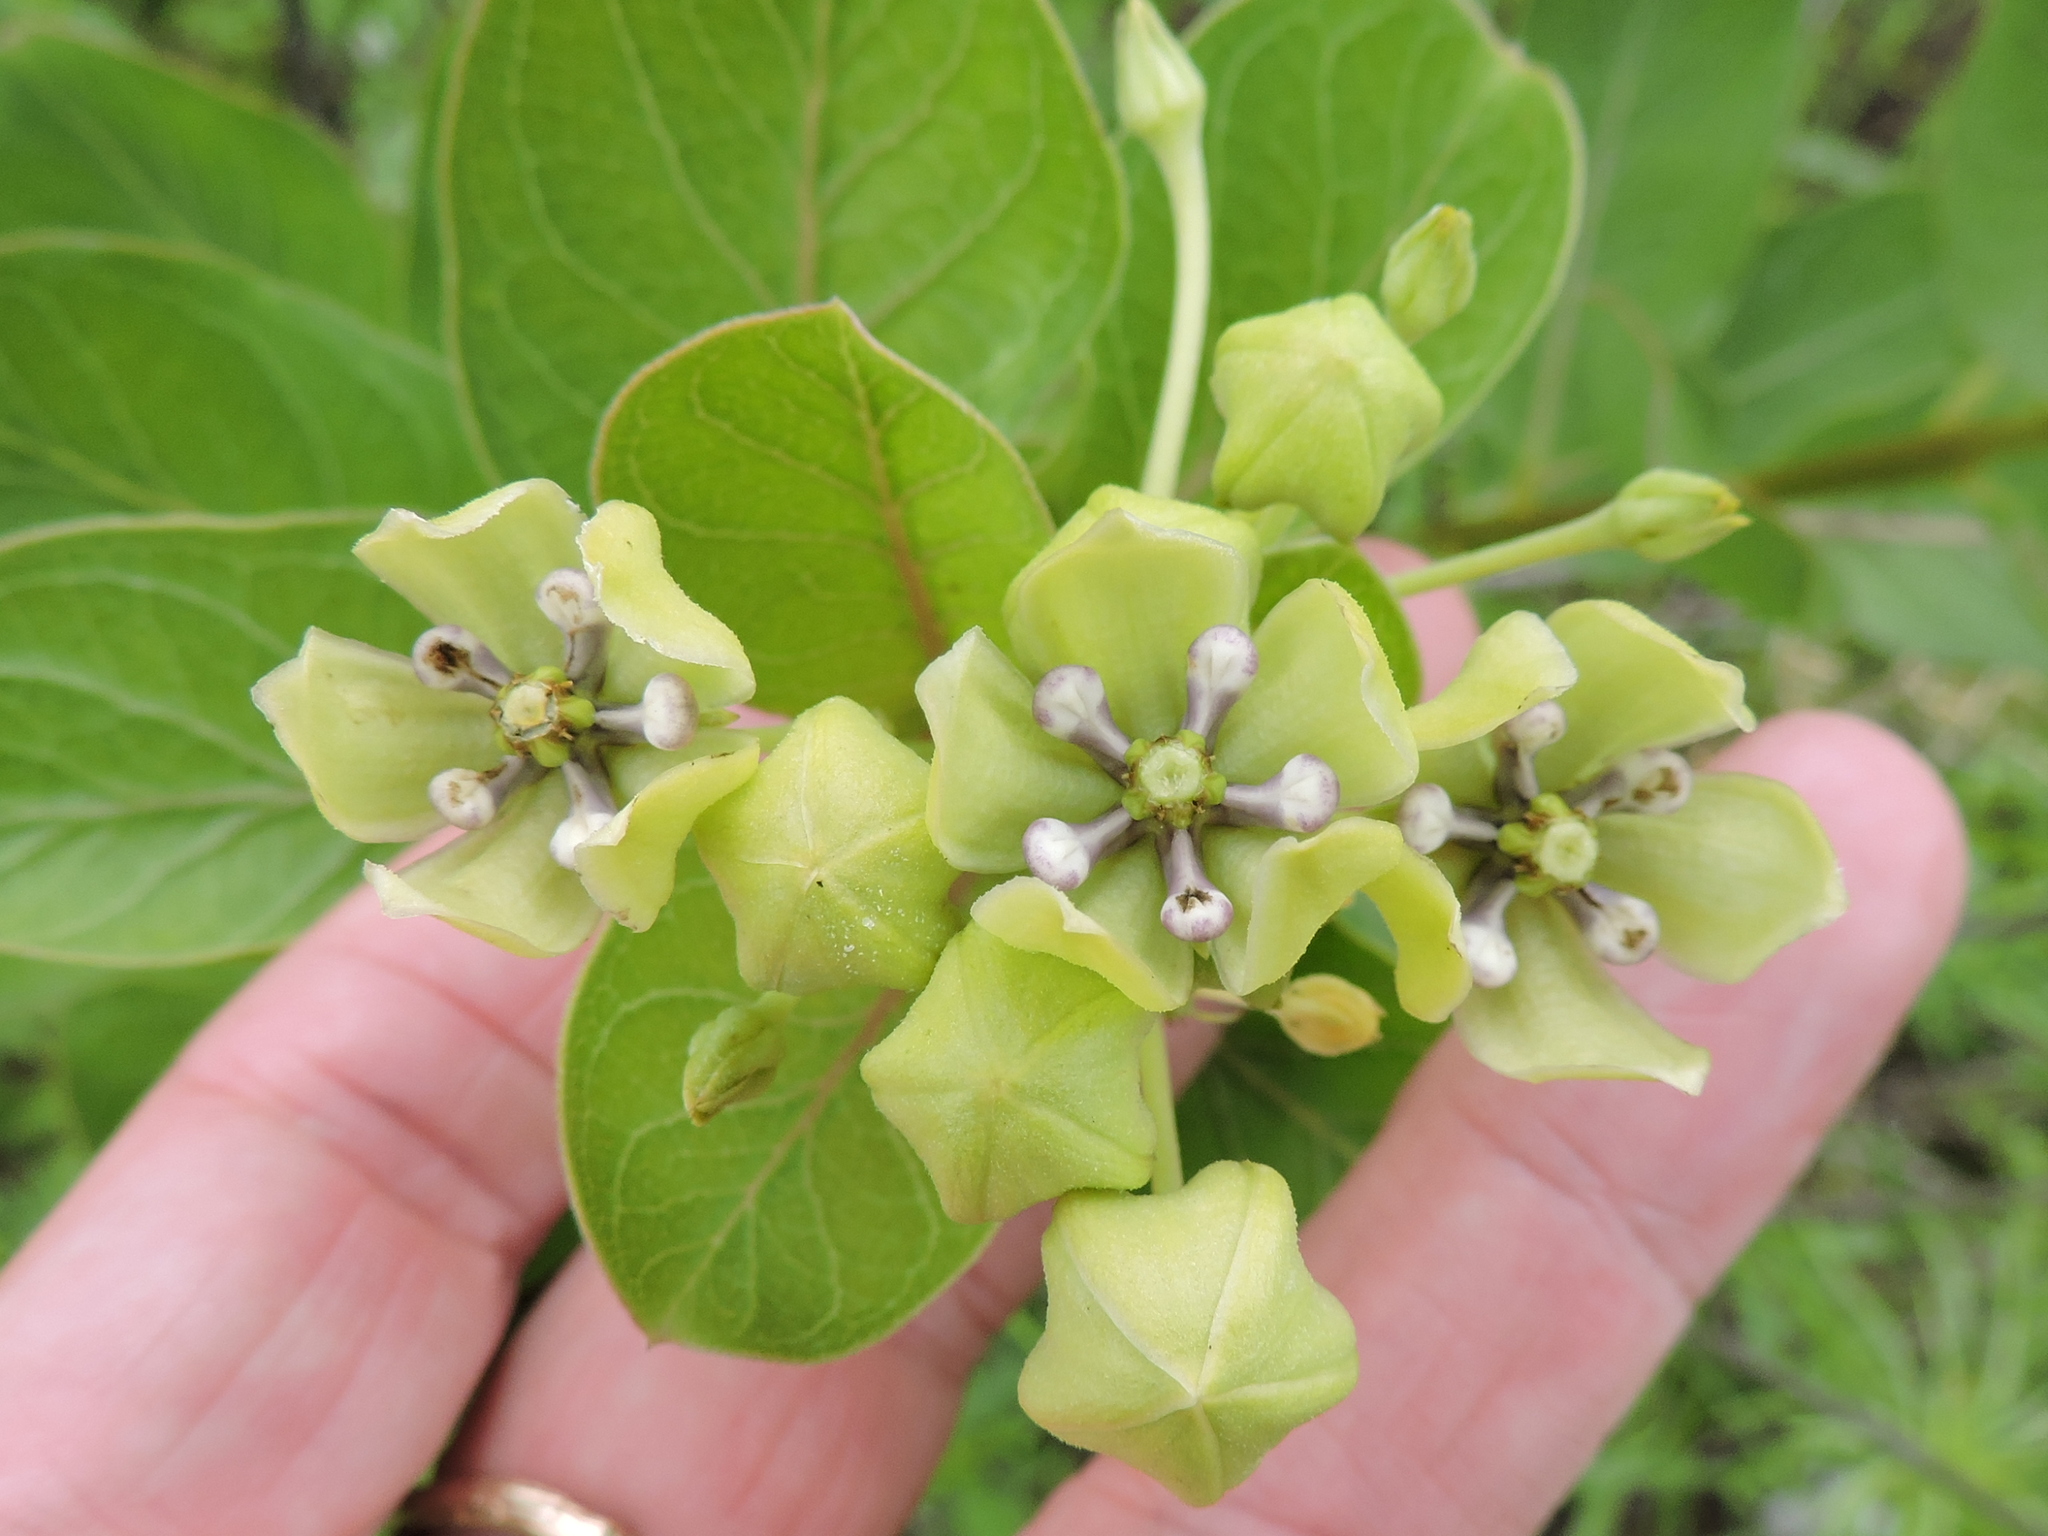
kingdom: Plantae
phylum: Tracheophyta
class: Magnoliopsida
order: Gentianales
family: Apocynaceae
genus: Asclepias
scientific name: Asclepias viridis
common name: Antelope-horns
